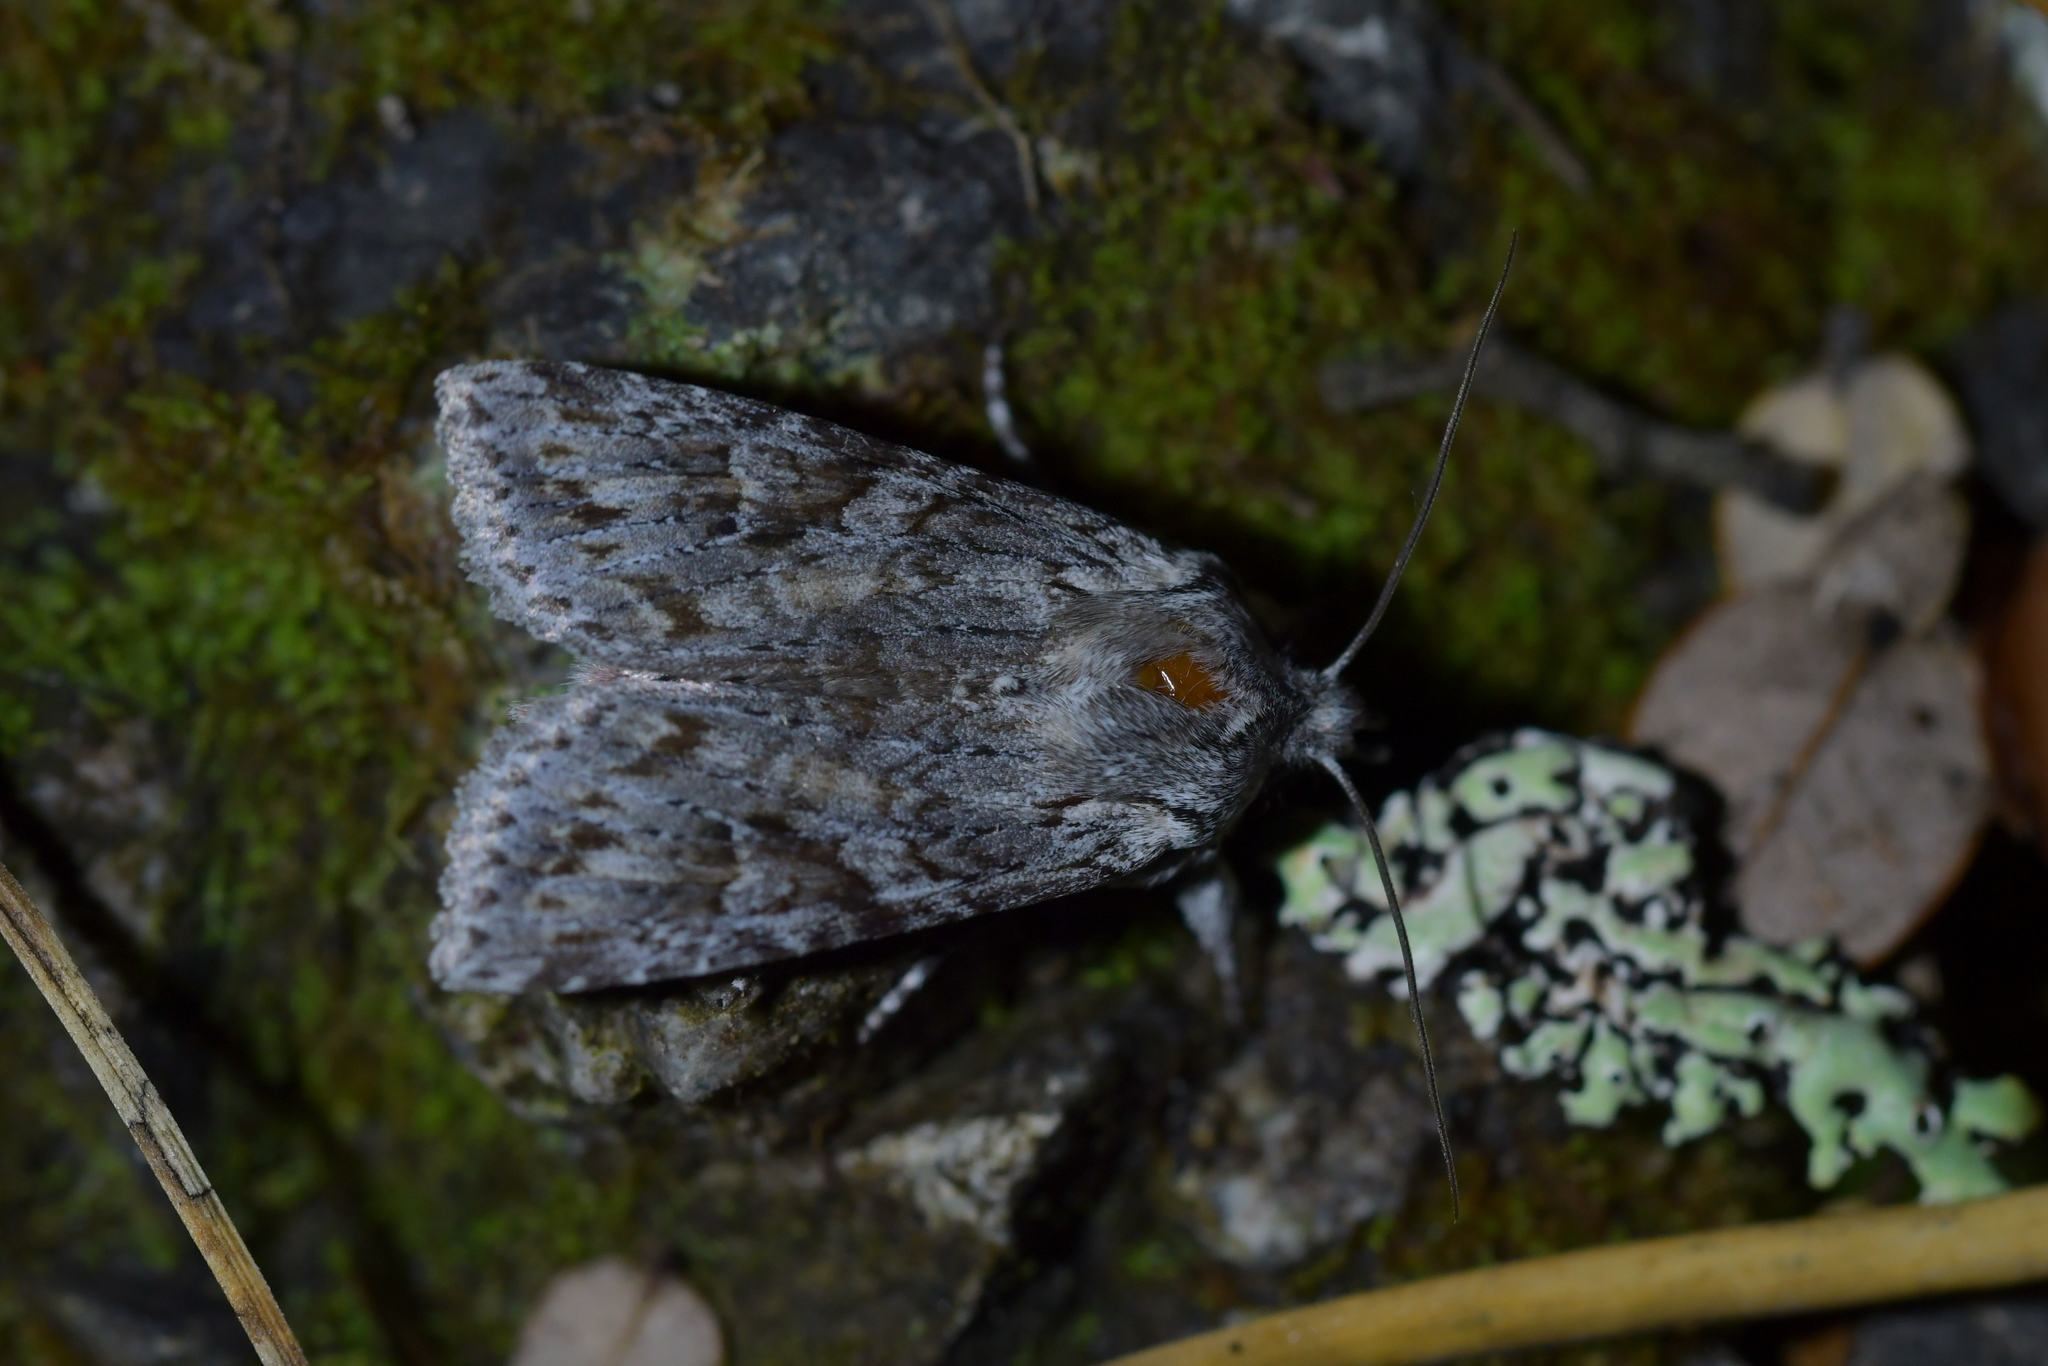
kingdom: Animalia
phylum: Arthropoda
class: Insecta
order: Lepidoptera
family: Noctuidae
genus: Physetica
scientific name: Physetica longstaffii
